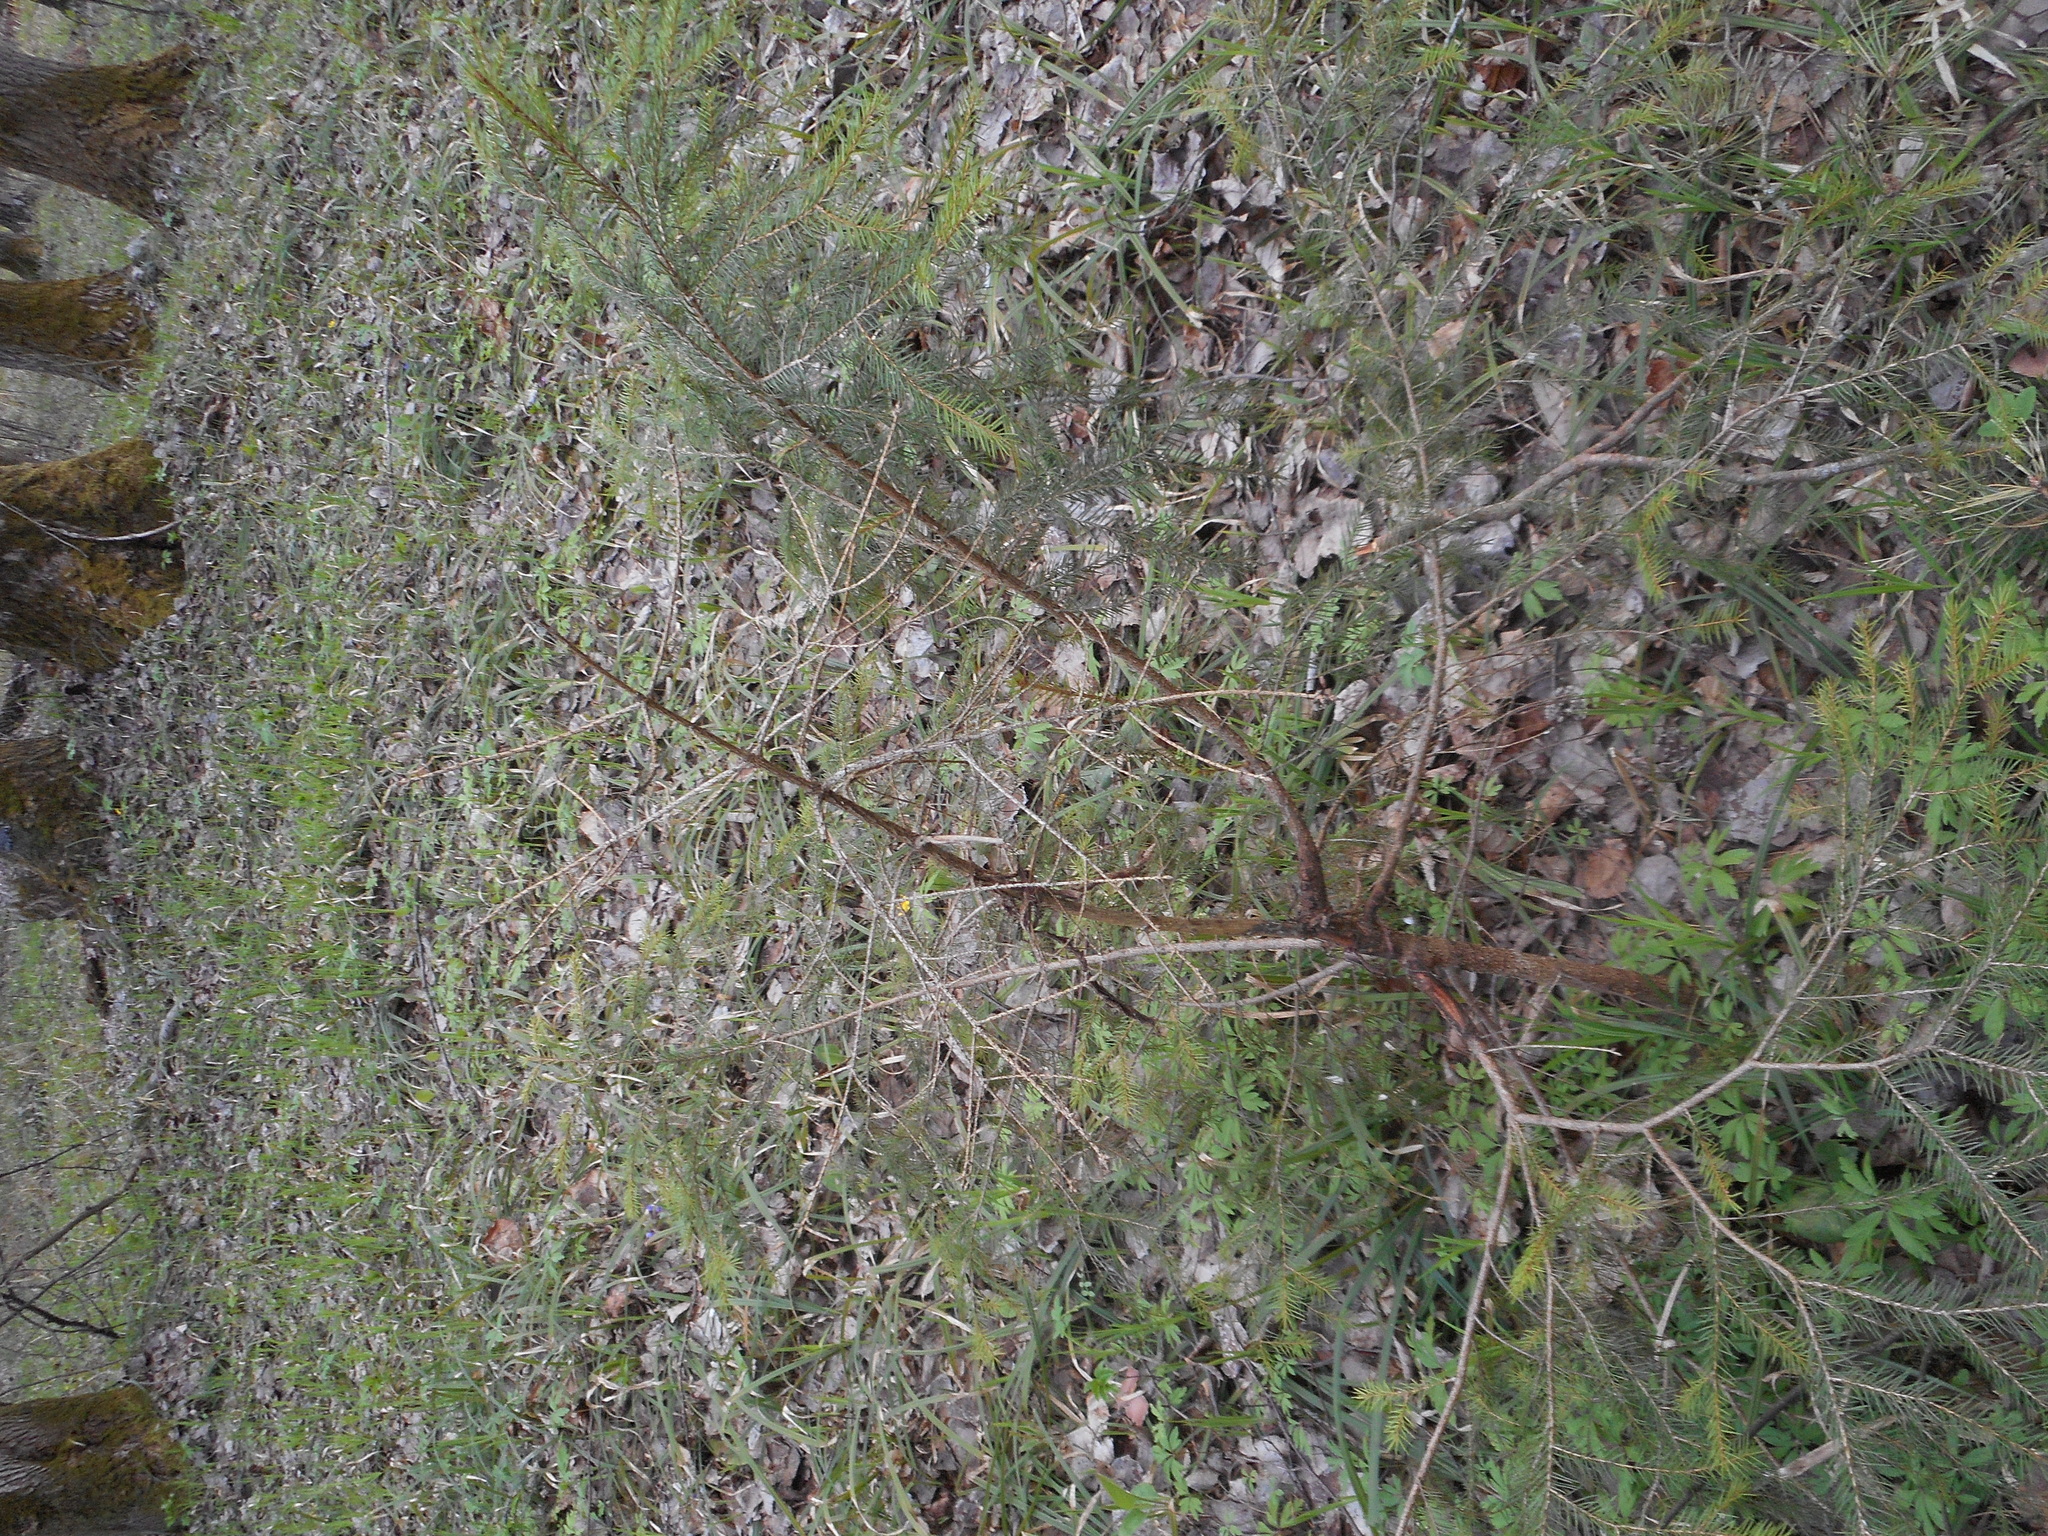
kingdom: Plantae
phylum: Tracheophyta
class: Pinopsida
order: Pinales
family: Pinaceae
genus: Picea
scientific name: Picea abies
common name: Norway spruce
